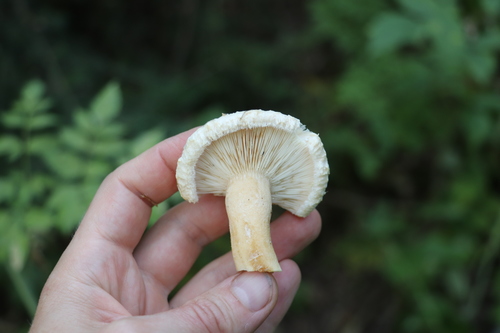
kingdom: Fungi
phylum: Basidiomycota
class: Agaricomycetes
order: Russulales
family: Russulaceae
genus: Lactarius
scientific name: Lactarius pubescens
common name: Bearded milkcap
